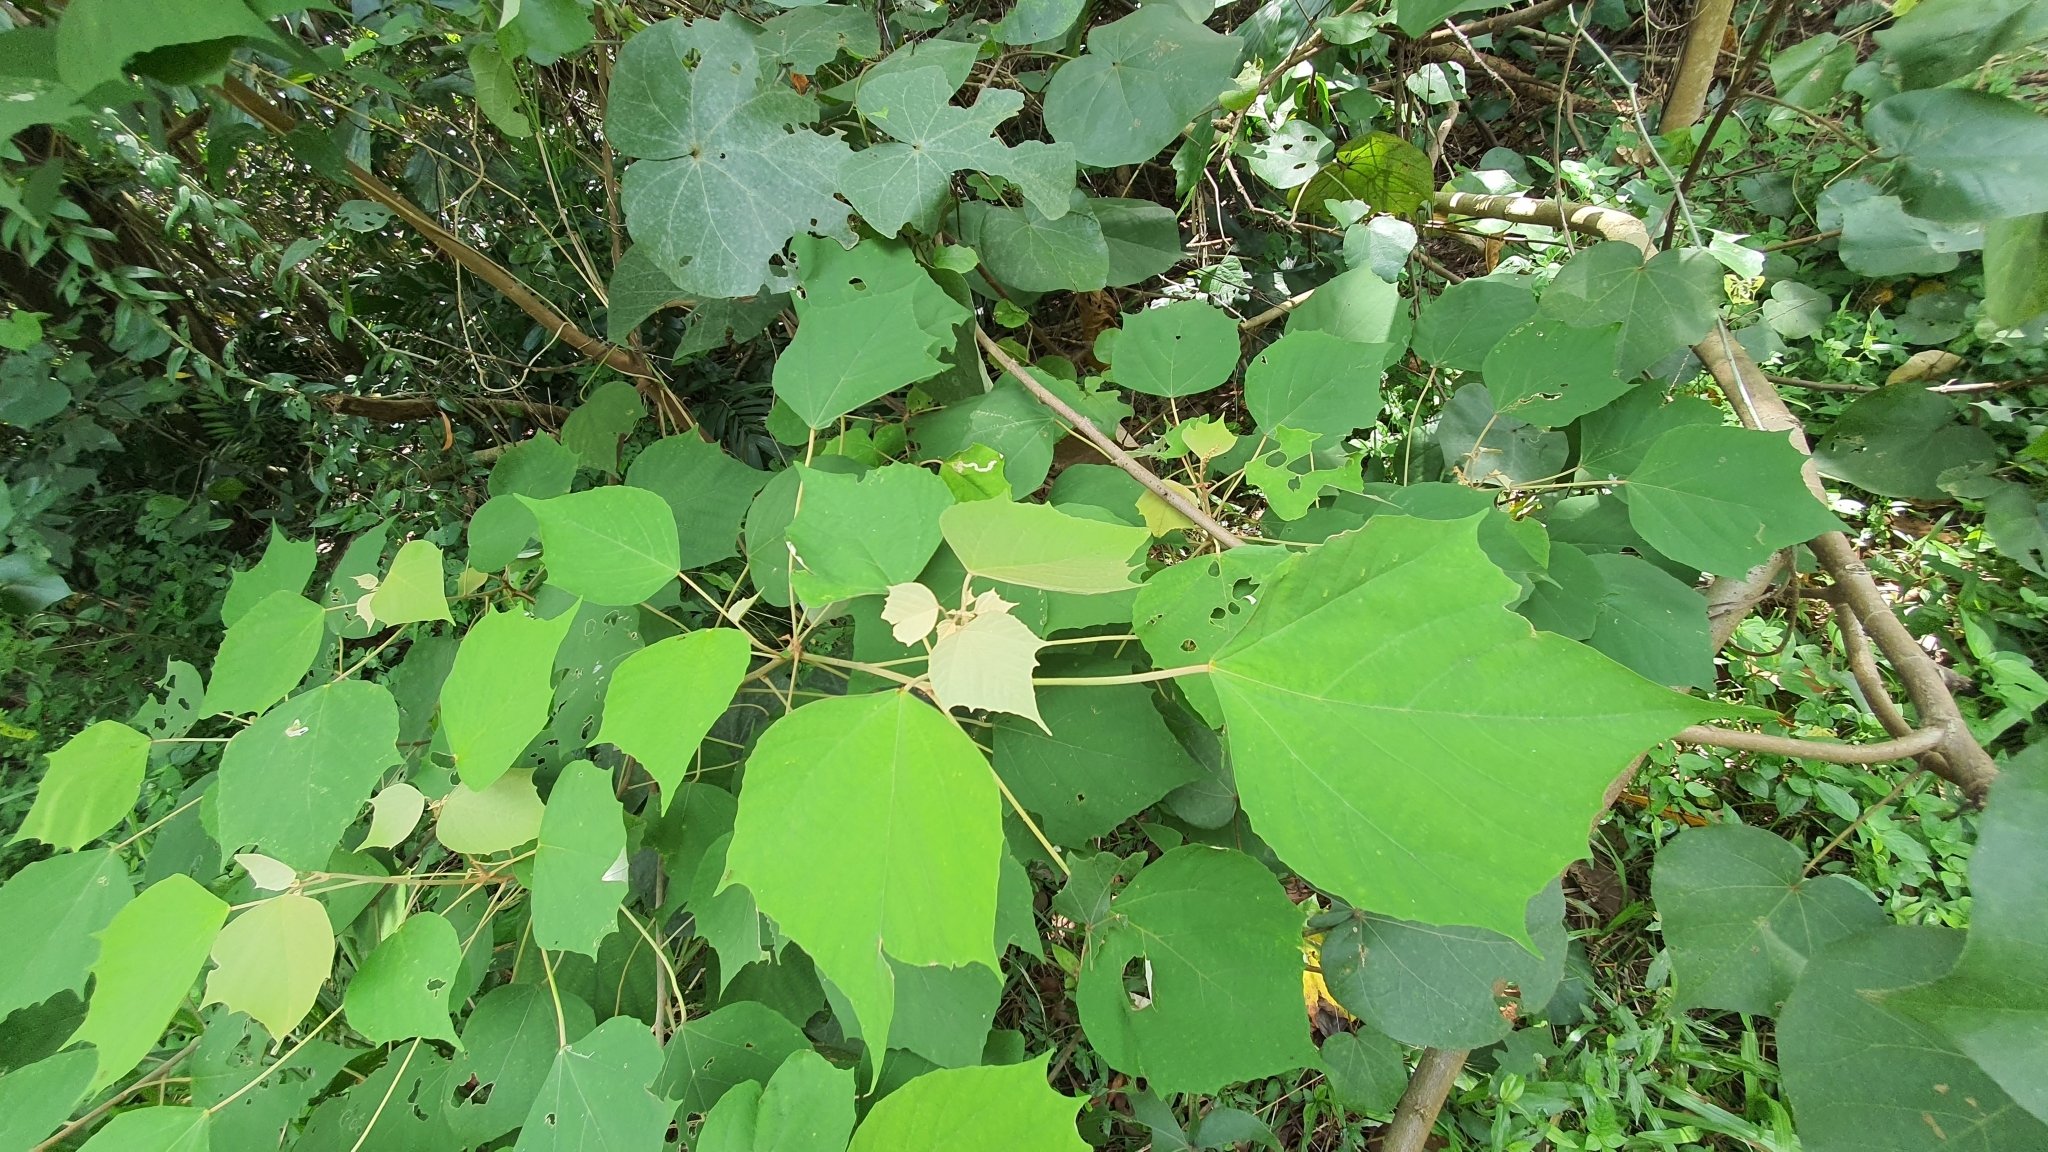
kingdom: Plantae
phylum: Tracheophyta
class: Magnoliopsida
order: Malpighiales
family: Euphorbiaceae
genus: Mallotus
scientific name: Mallotus paniculatus
